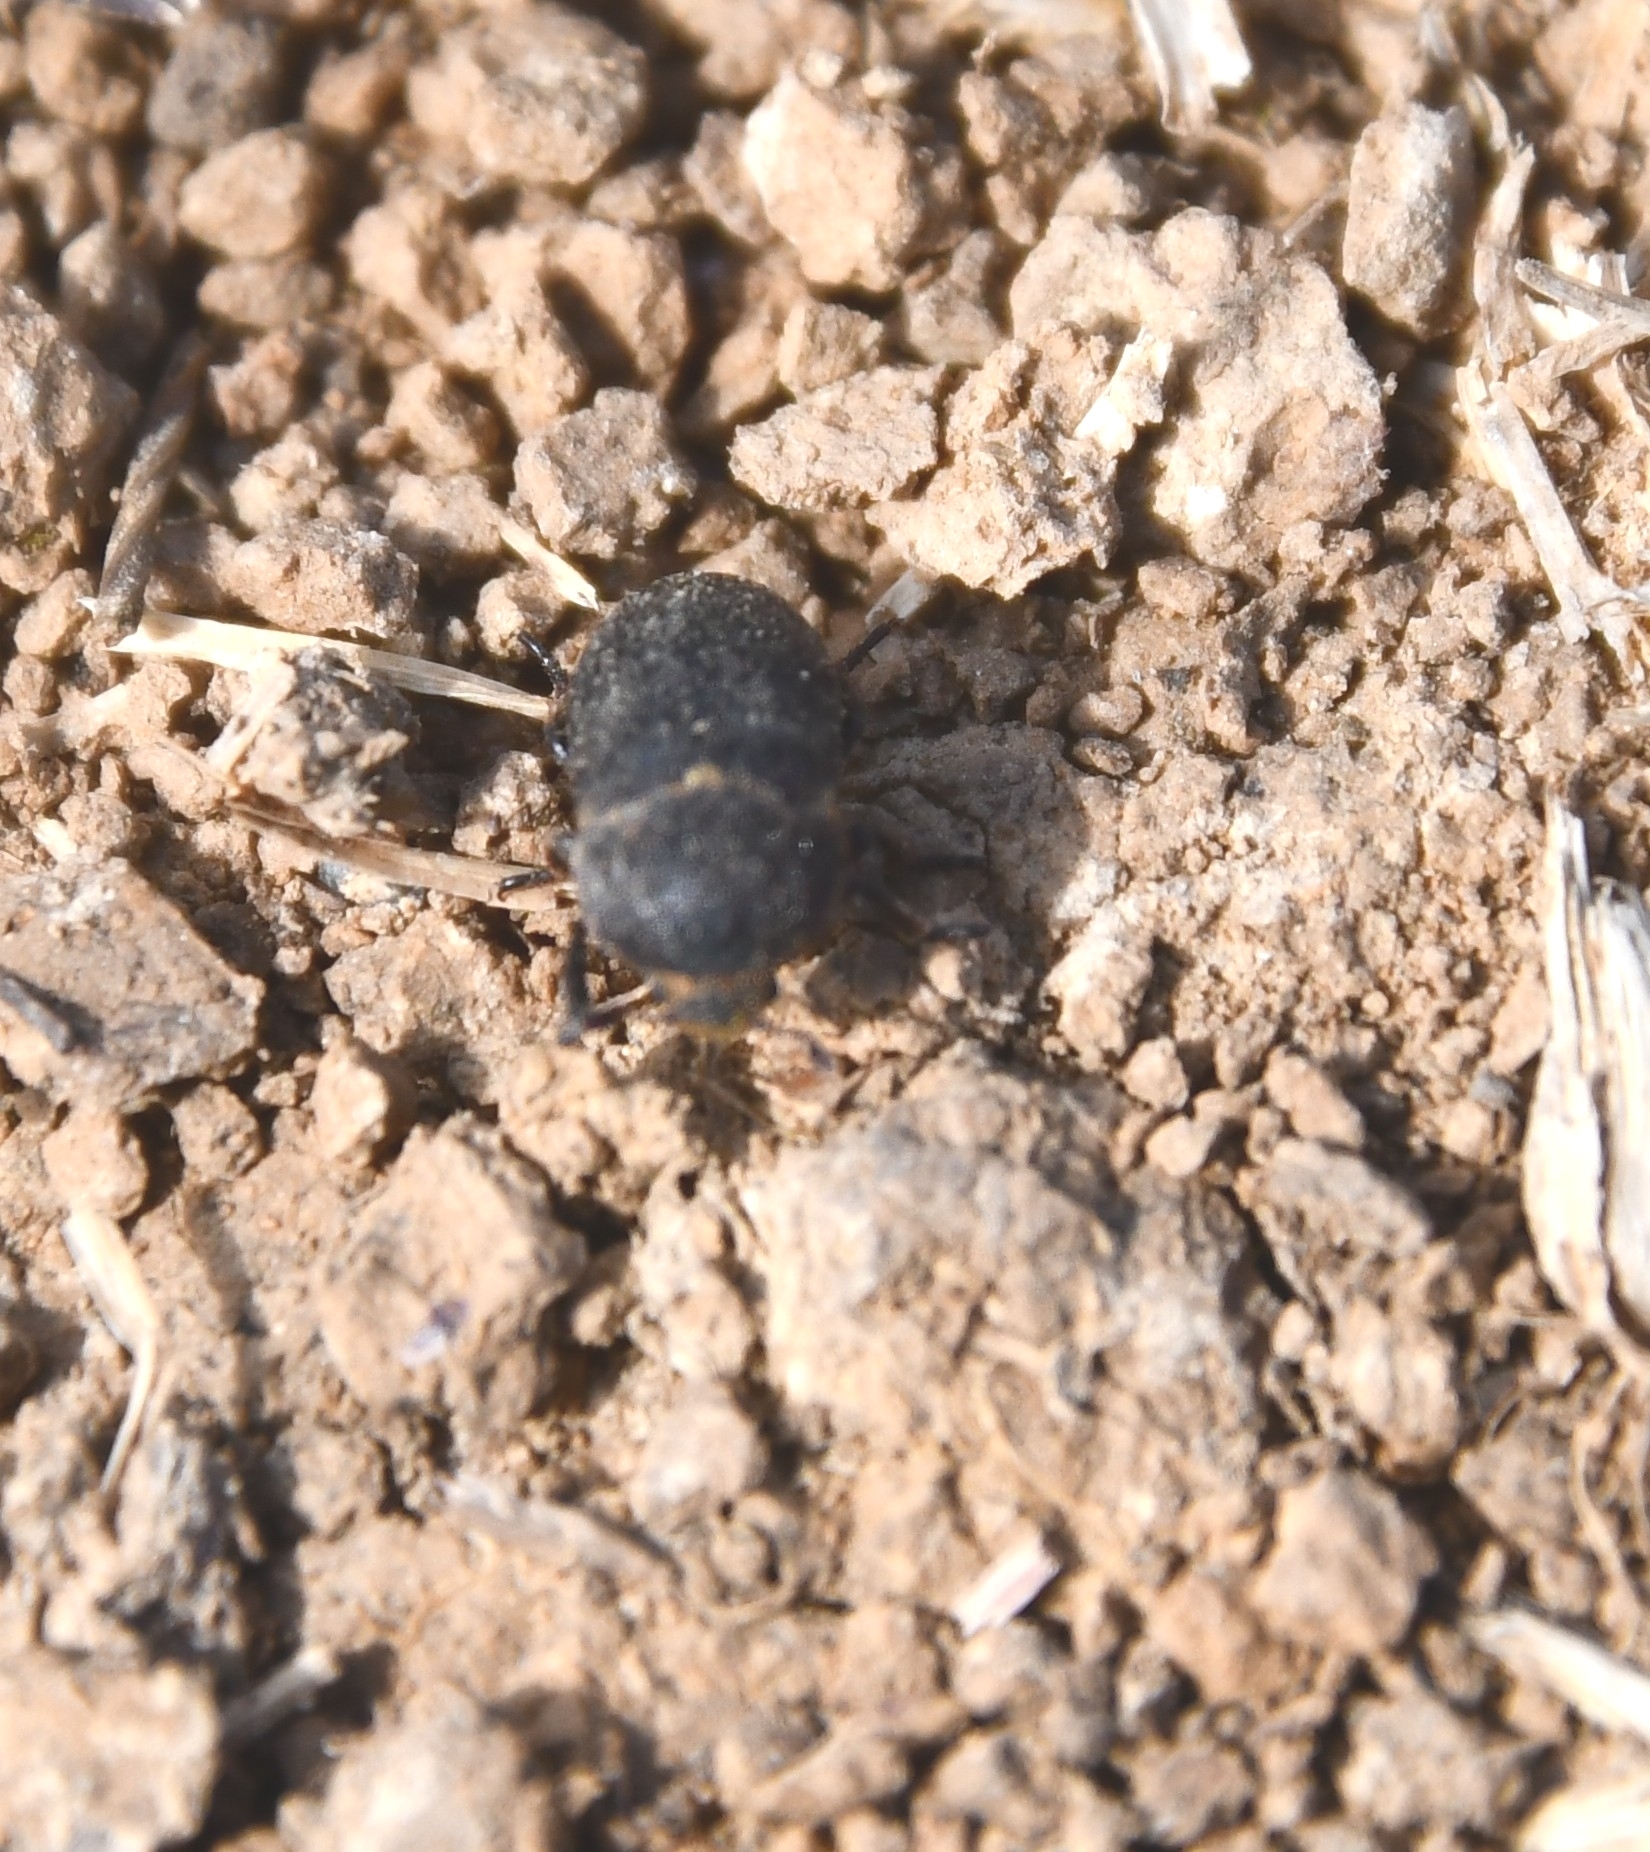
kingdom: Animalia
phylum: Arthropoda
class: Insecta
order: Coleoptera
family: Dermestidae
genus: Dermestes
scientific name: Dermestes laniarius
